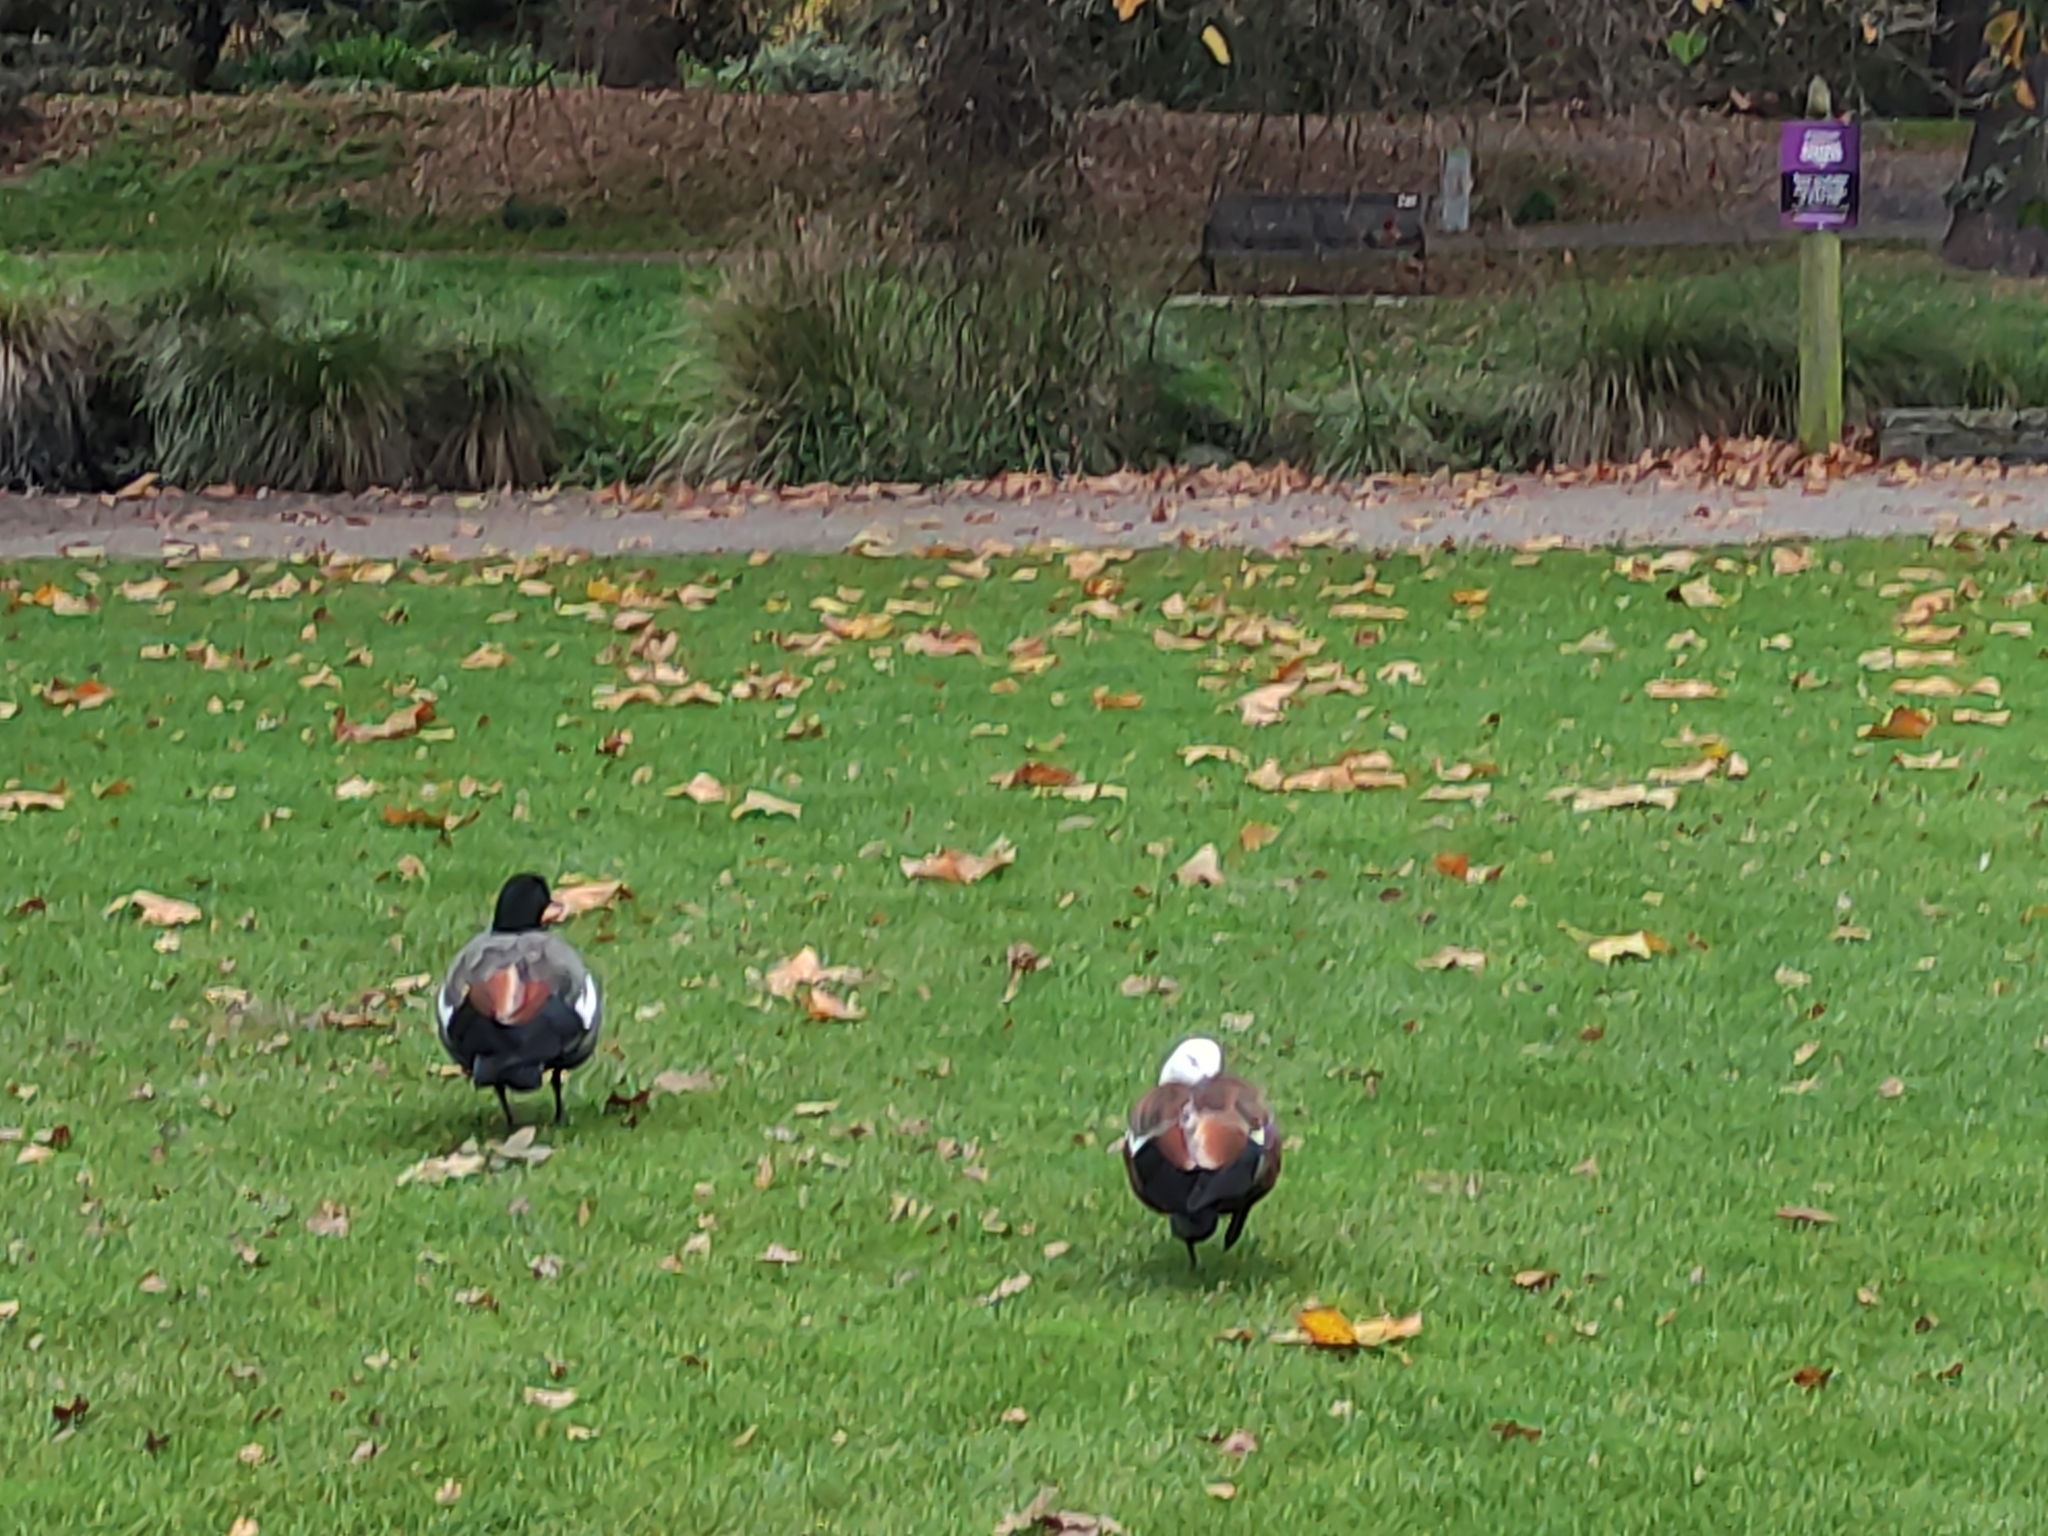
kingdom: Animalia
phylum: Chordata
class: Aves
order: Anseriformes
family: Anatidae
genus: Tadorna
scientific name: Tadorna variegata
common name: Paradise shelduck
